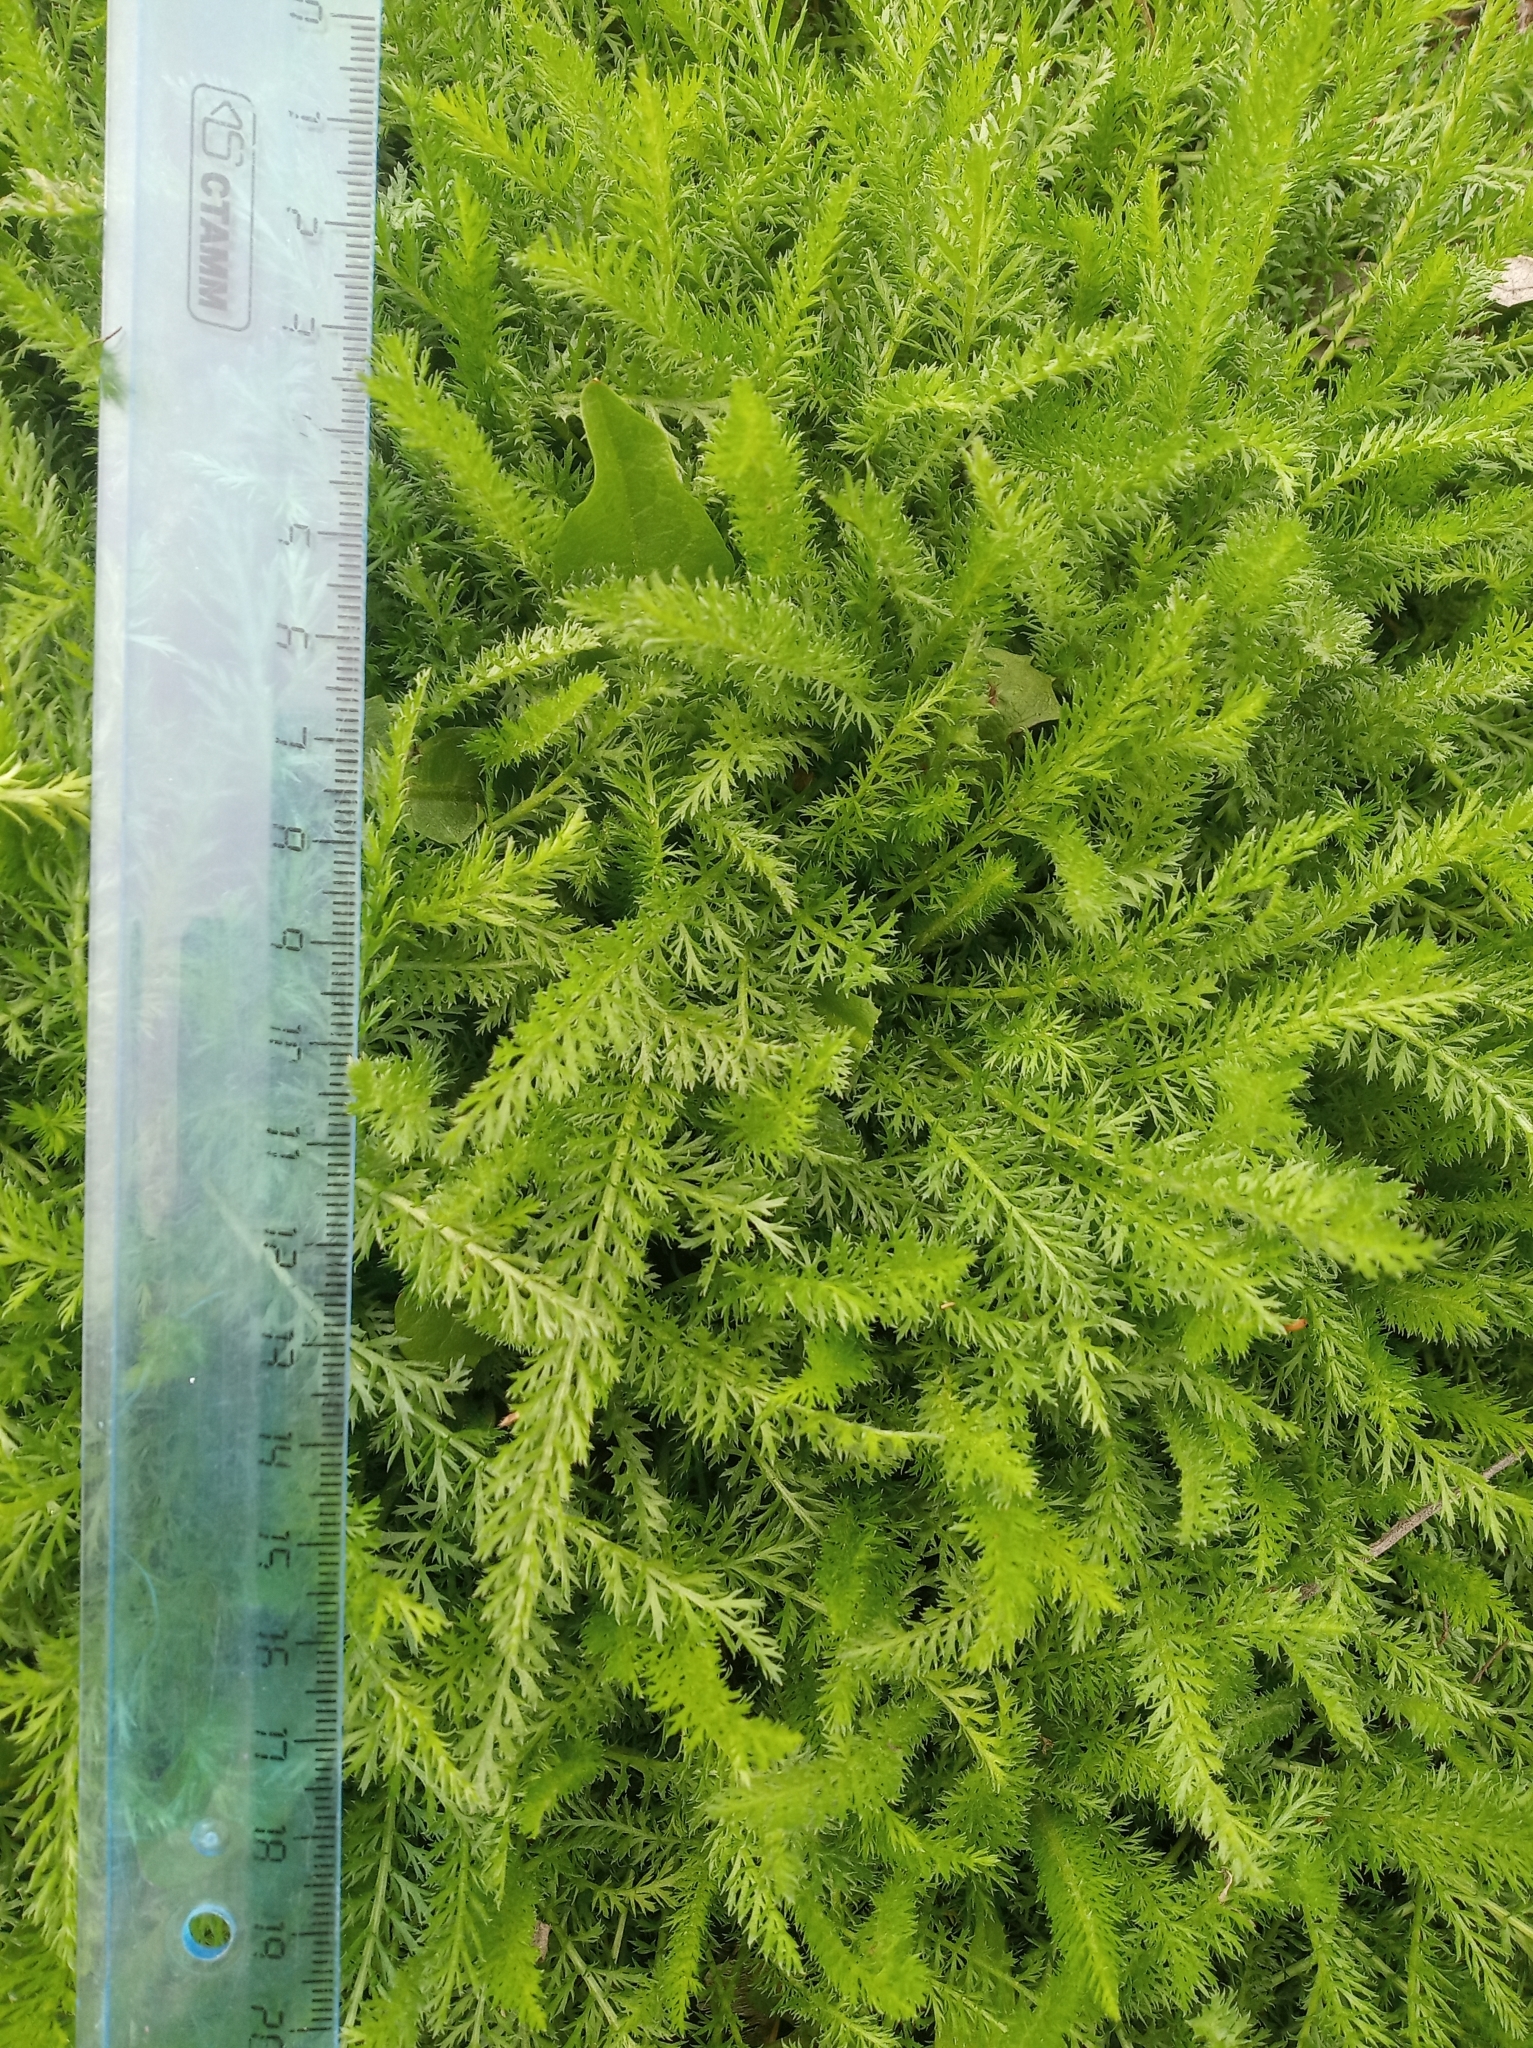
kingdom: Plantae
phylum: Tracheophyta
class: Magnoliopsida
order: Asterales
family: Asteraceae
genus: Achillea
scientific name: Achillea millefolium
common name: Yarrow
